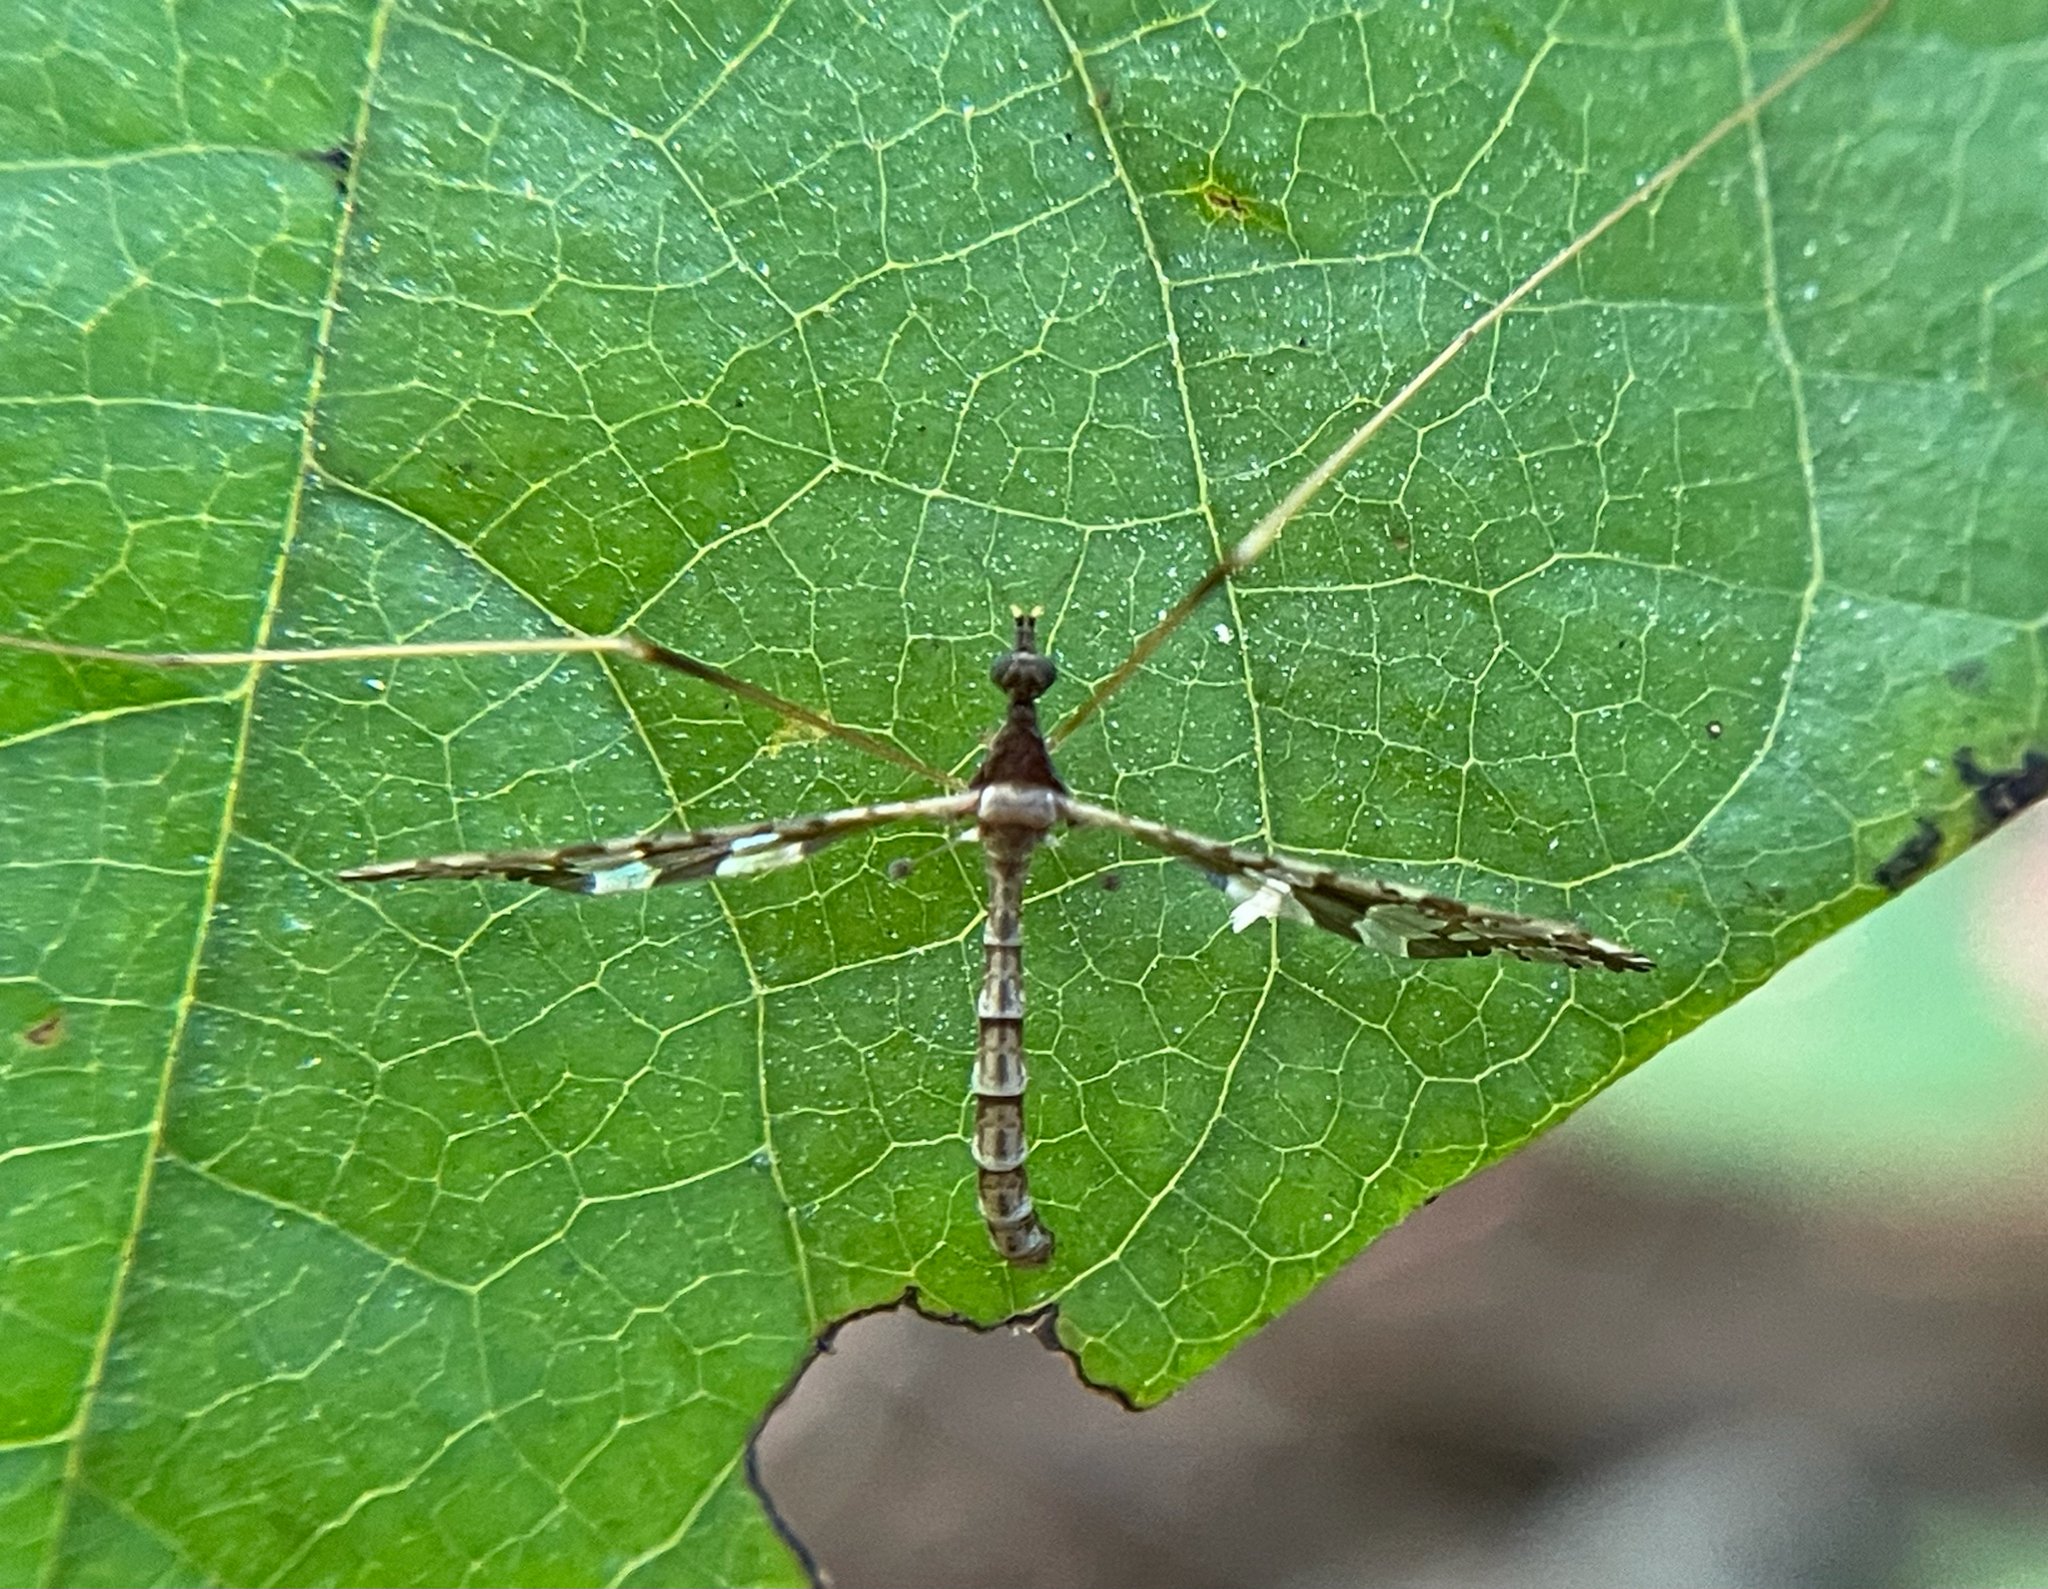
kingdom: Animalia
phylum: Arthropoda
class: Insecta
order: Diptera
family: Limoniidae
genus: Epiphragma
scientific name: Epiphragma solatrix
